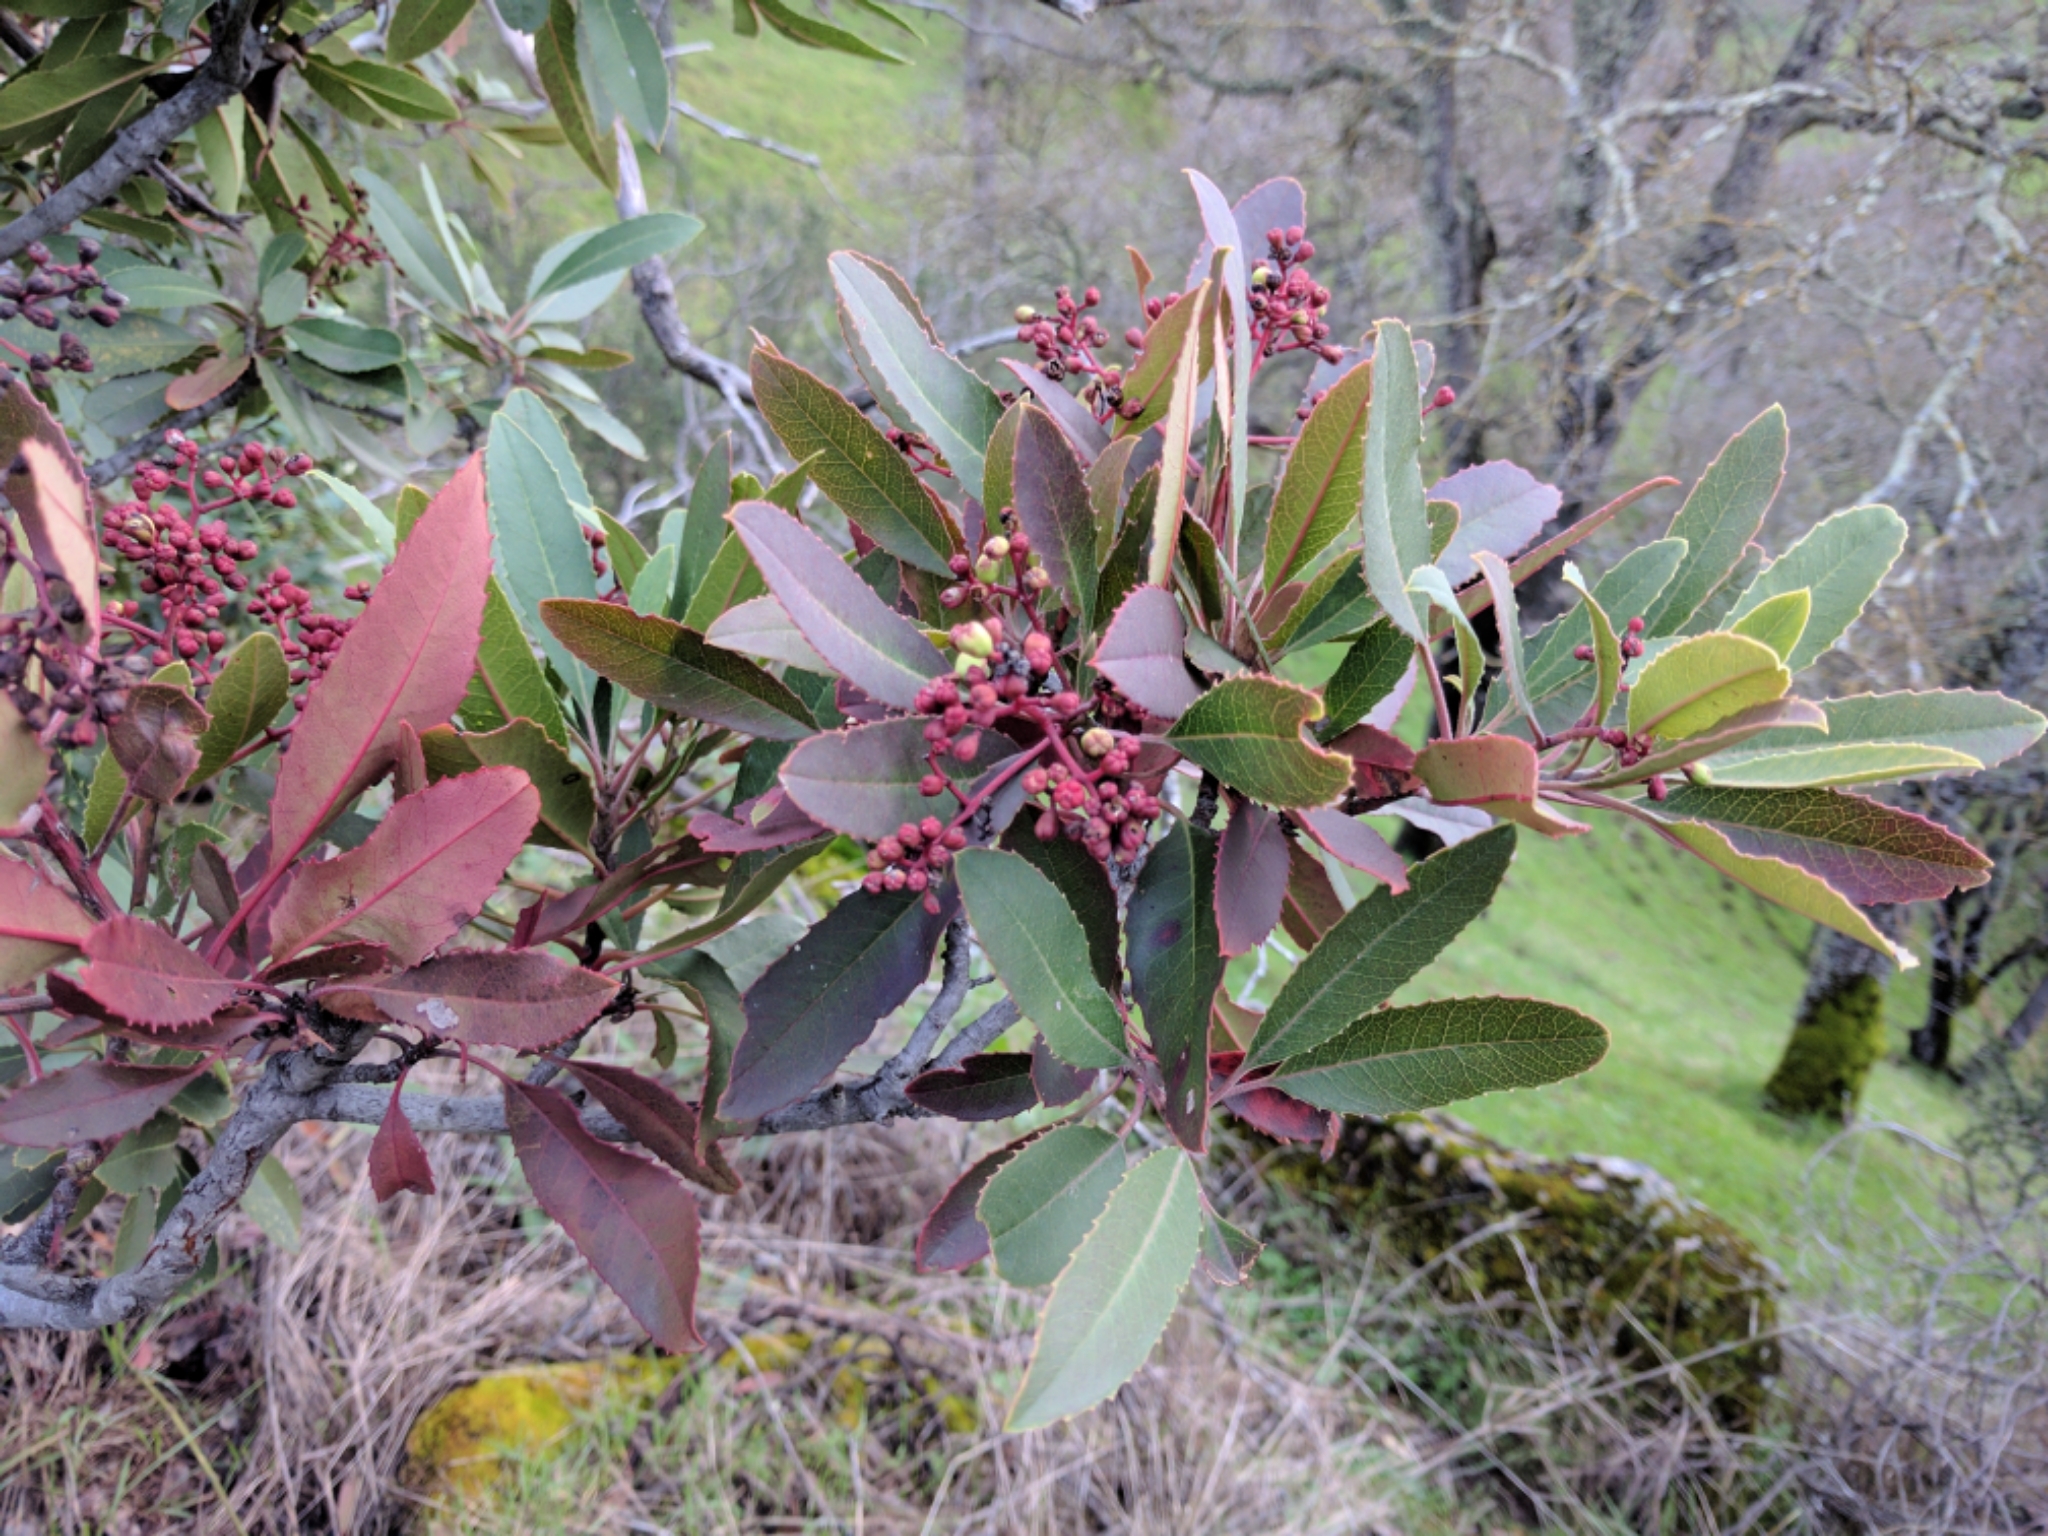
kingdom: Plantae
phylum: Tracheophyta
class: Magnoliopsida
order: Rosales
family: Rosaceae
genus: Heteromeles
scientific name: Heteromeles arbutifolia
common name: California-holly
